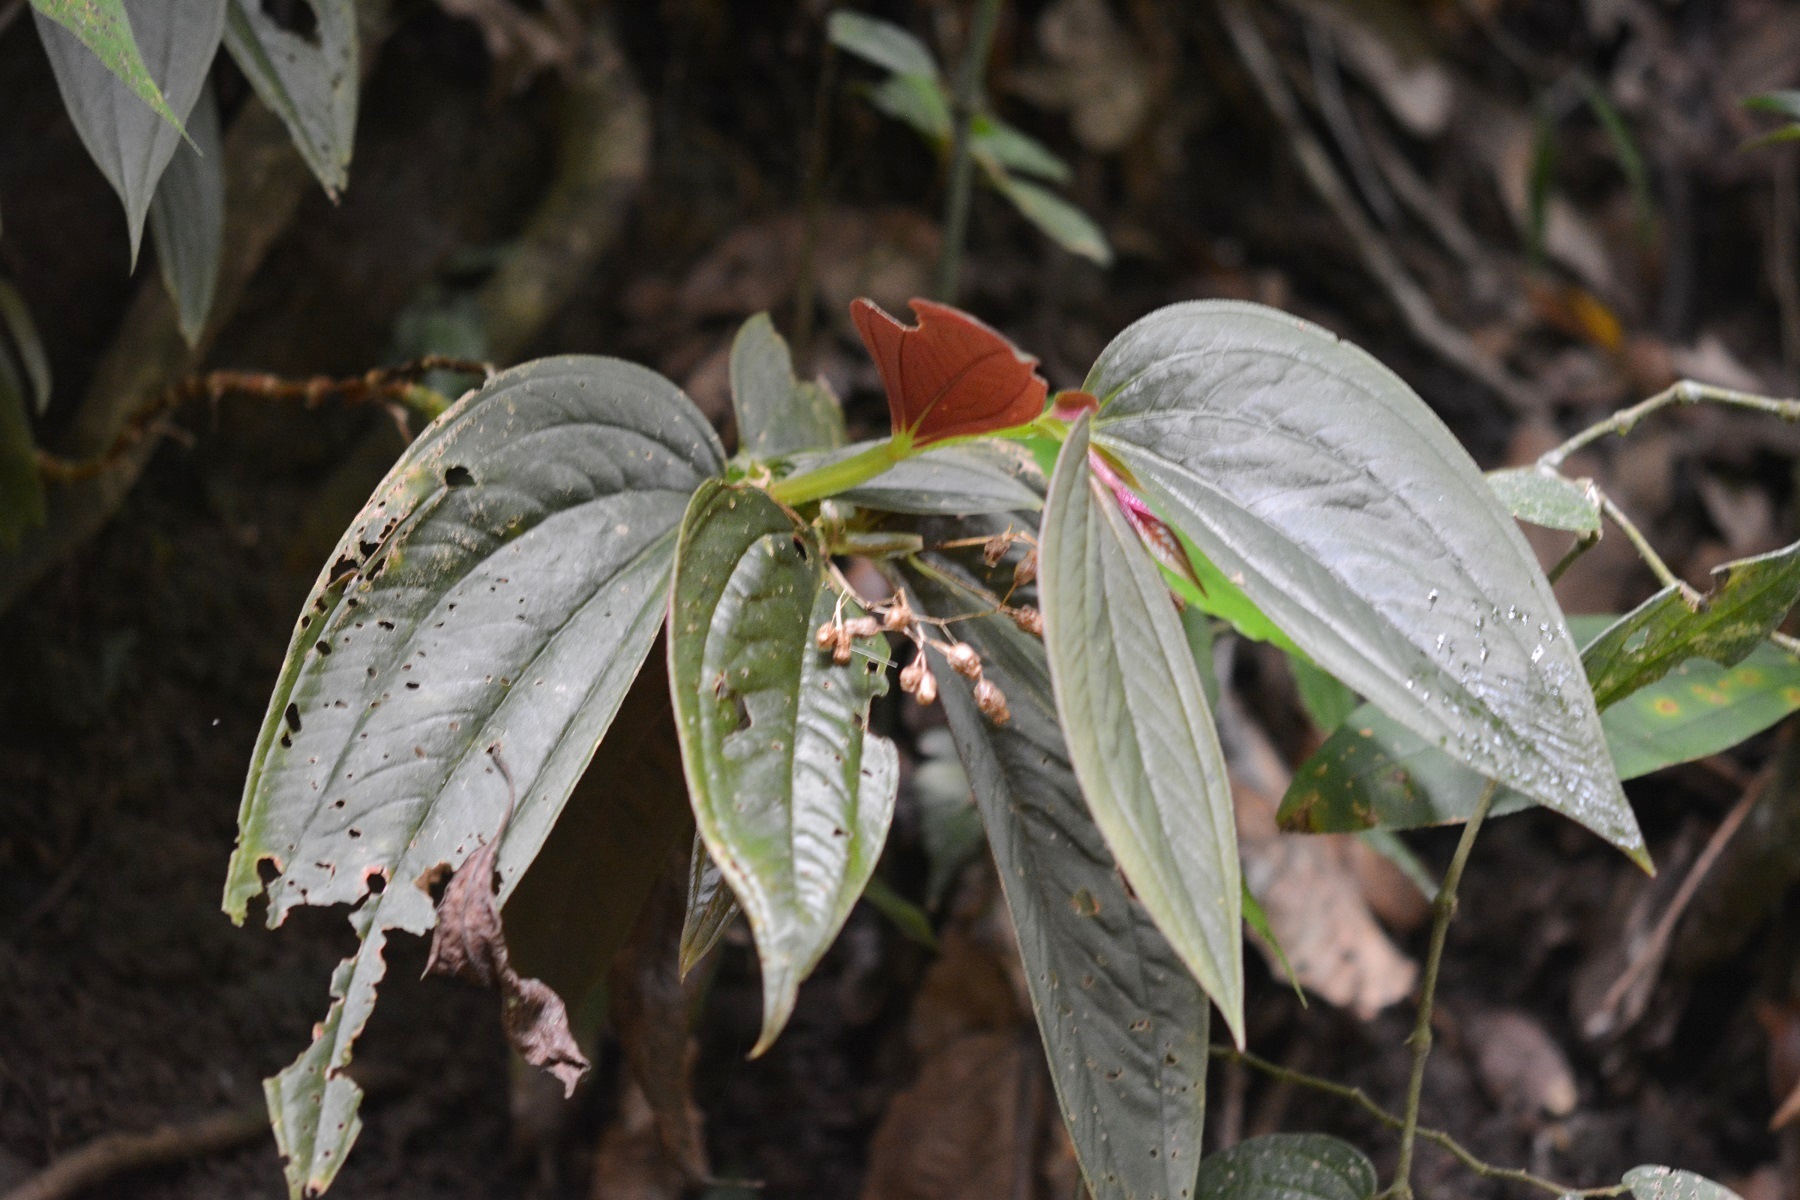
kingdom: Plantae
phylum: Tracheophyta
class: Magnoliopsida
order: Myrtales
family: Melastomataceae
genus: Centradenia
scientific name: Centradenia grandifolia
